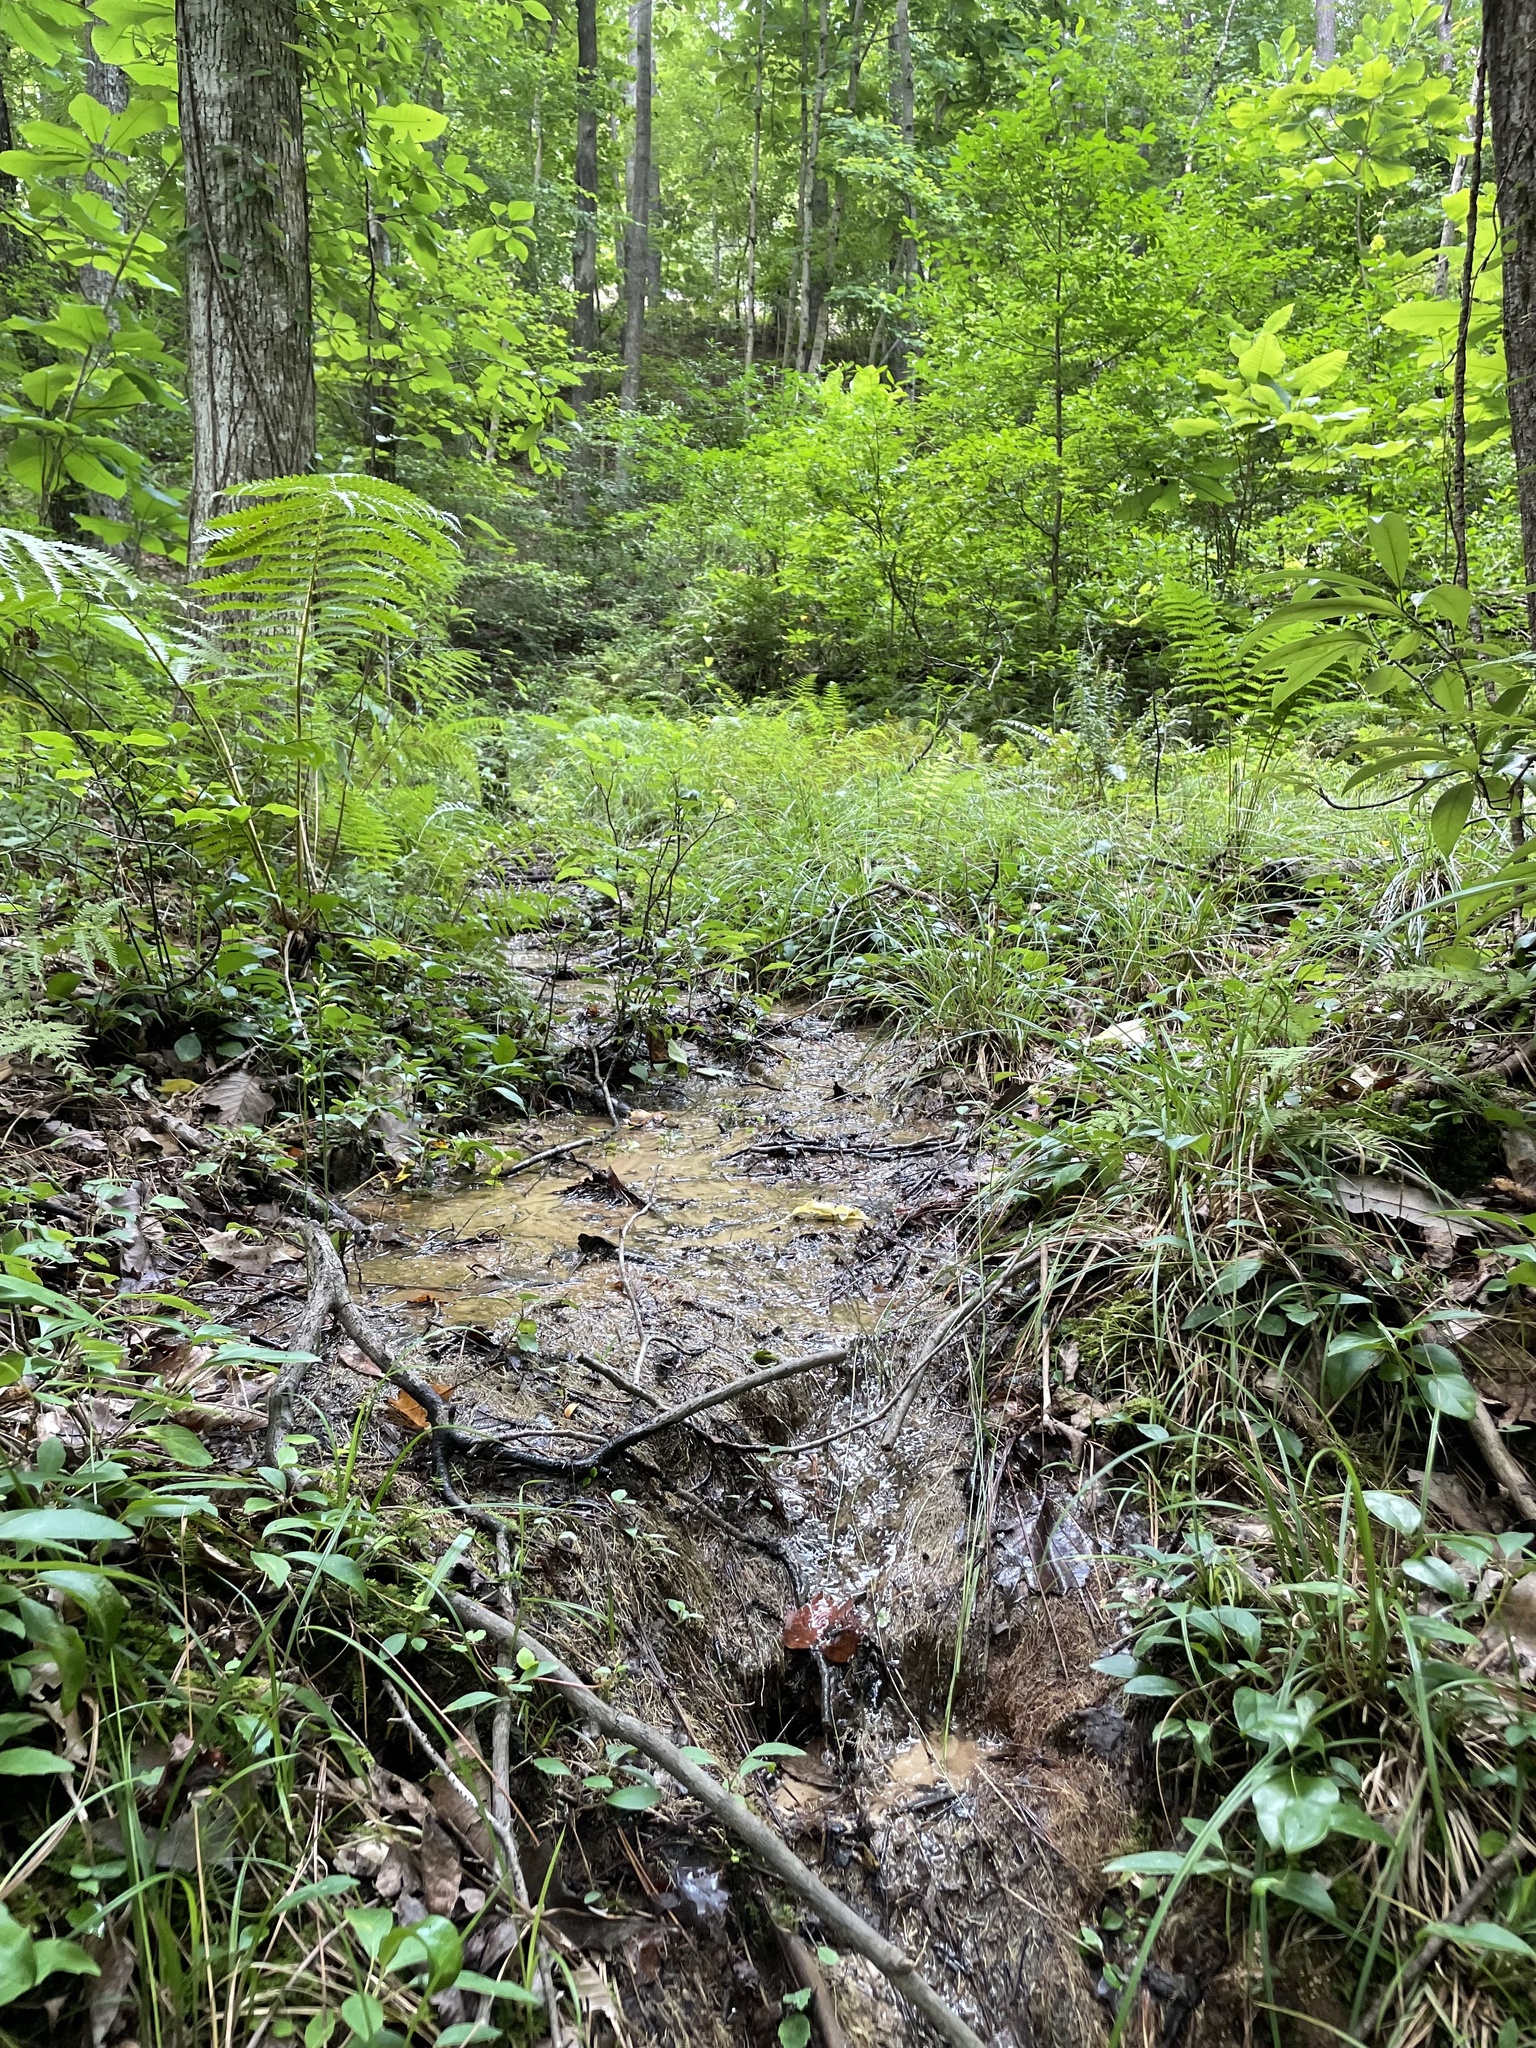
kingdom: Plantae
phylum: Tracheophyta
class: Liliopsida
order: Asparagales
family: Orchidaceae
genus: Platanthera
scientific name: Platanthera clavellata
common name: Club-spur orchid
